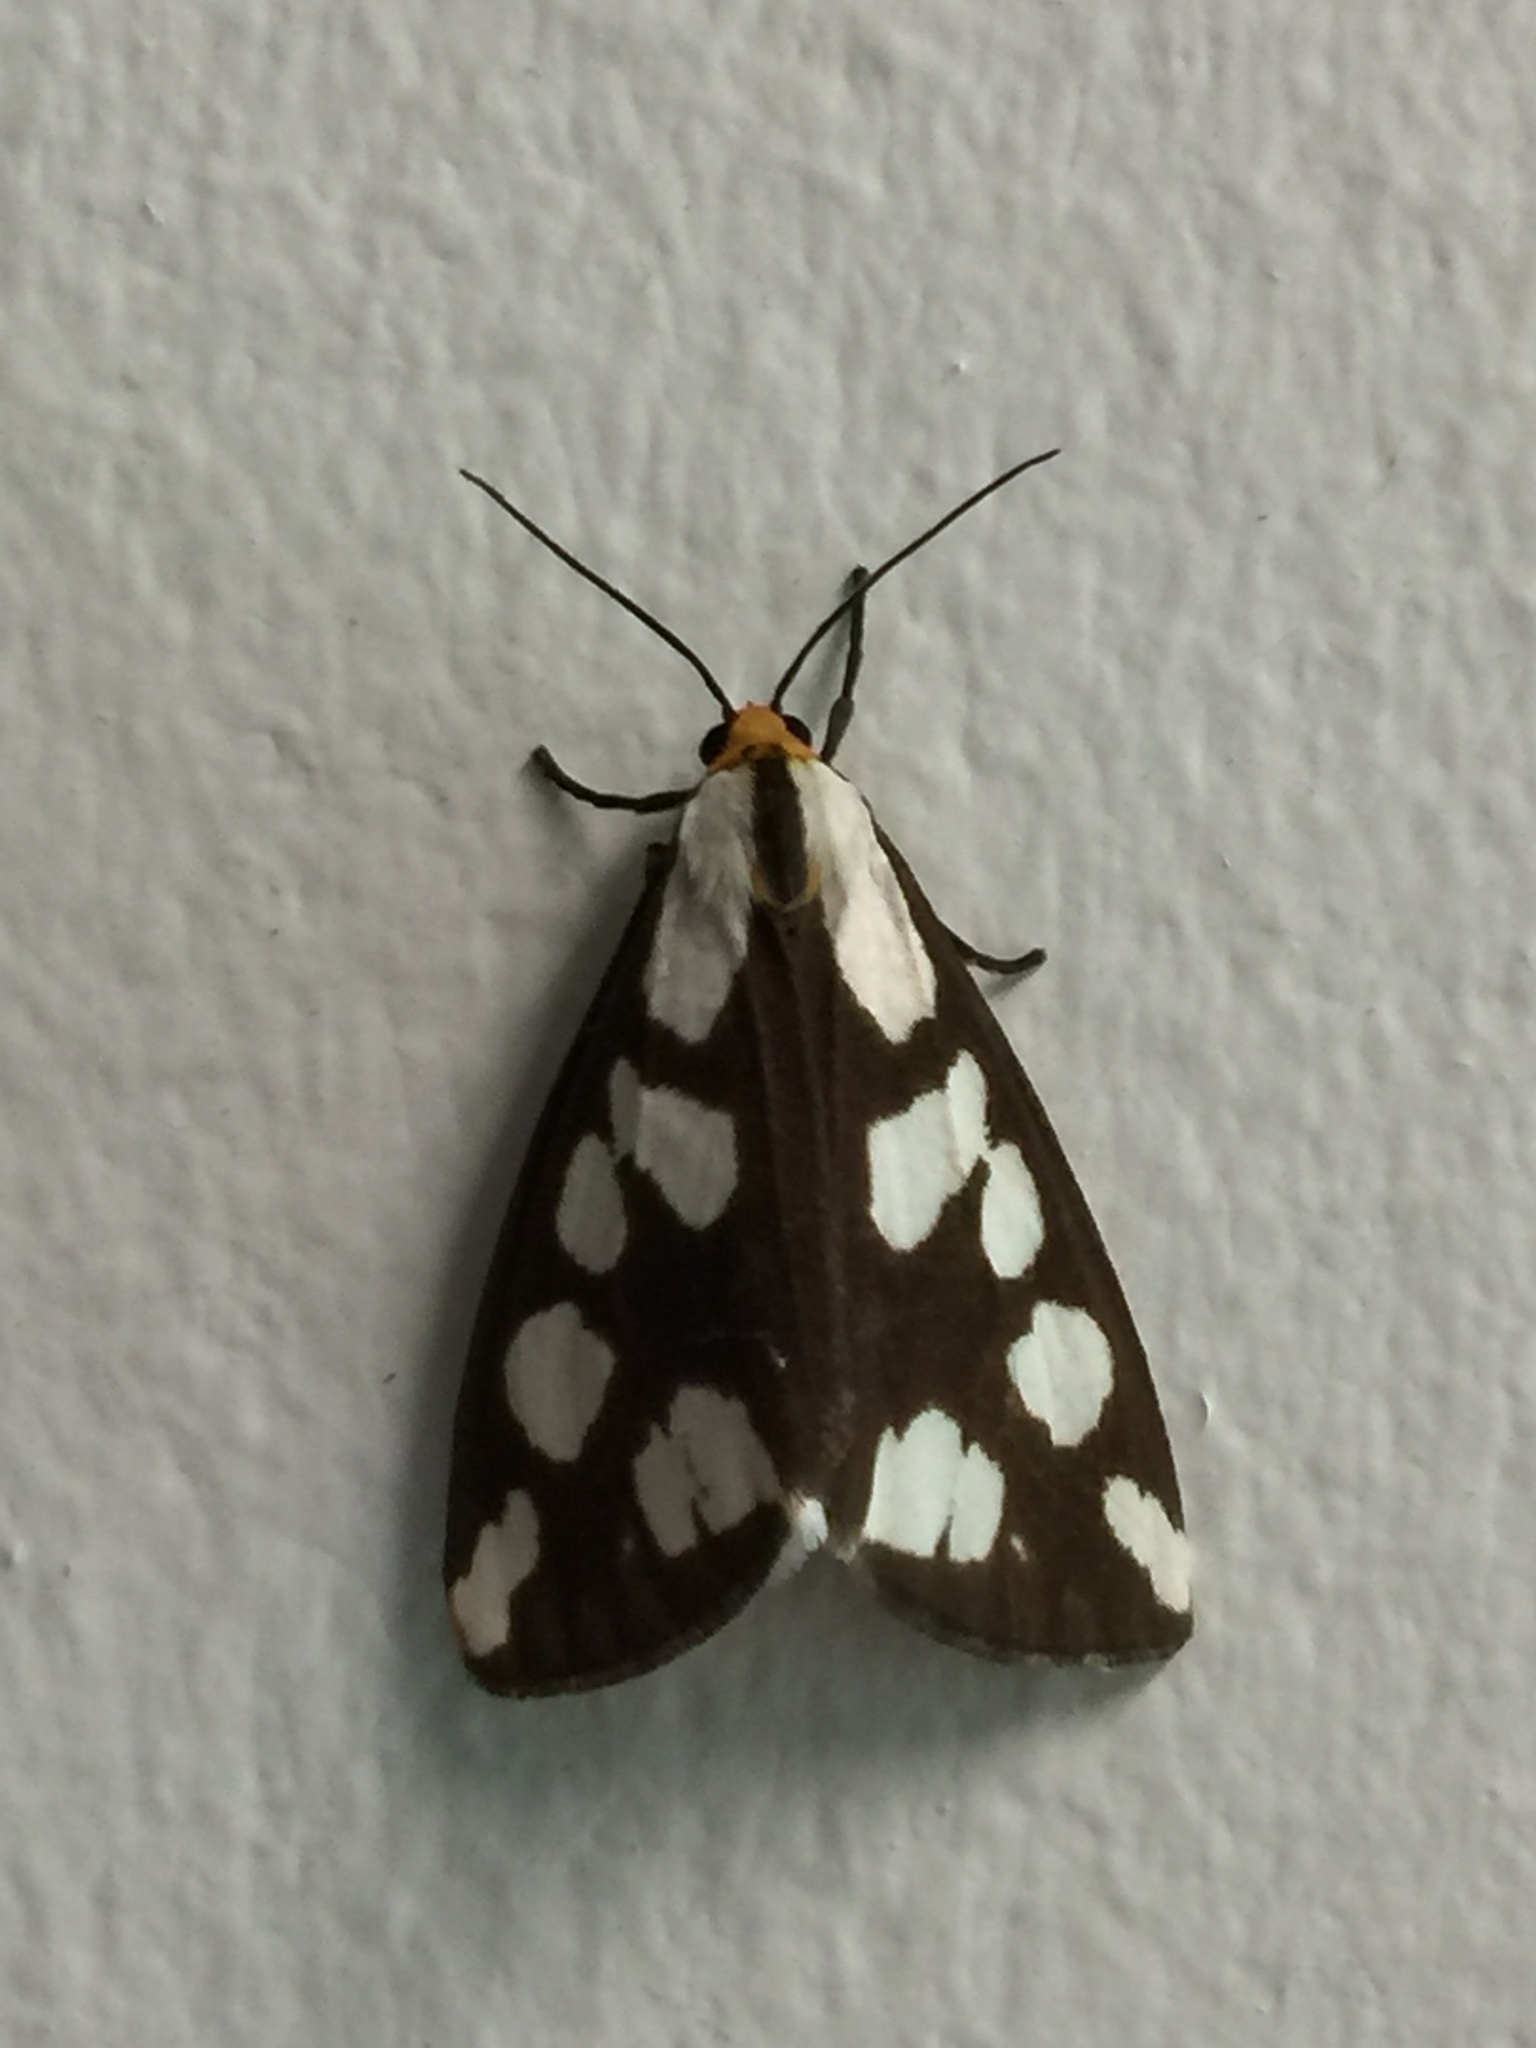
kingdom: Animalia
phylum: Arthropoda
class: Insecta
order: Lepidoptera
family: Erebidae
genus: Haploa
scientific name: Haploa confusa
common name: Confused haploa moth
